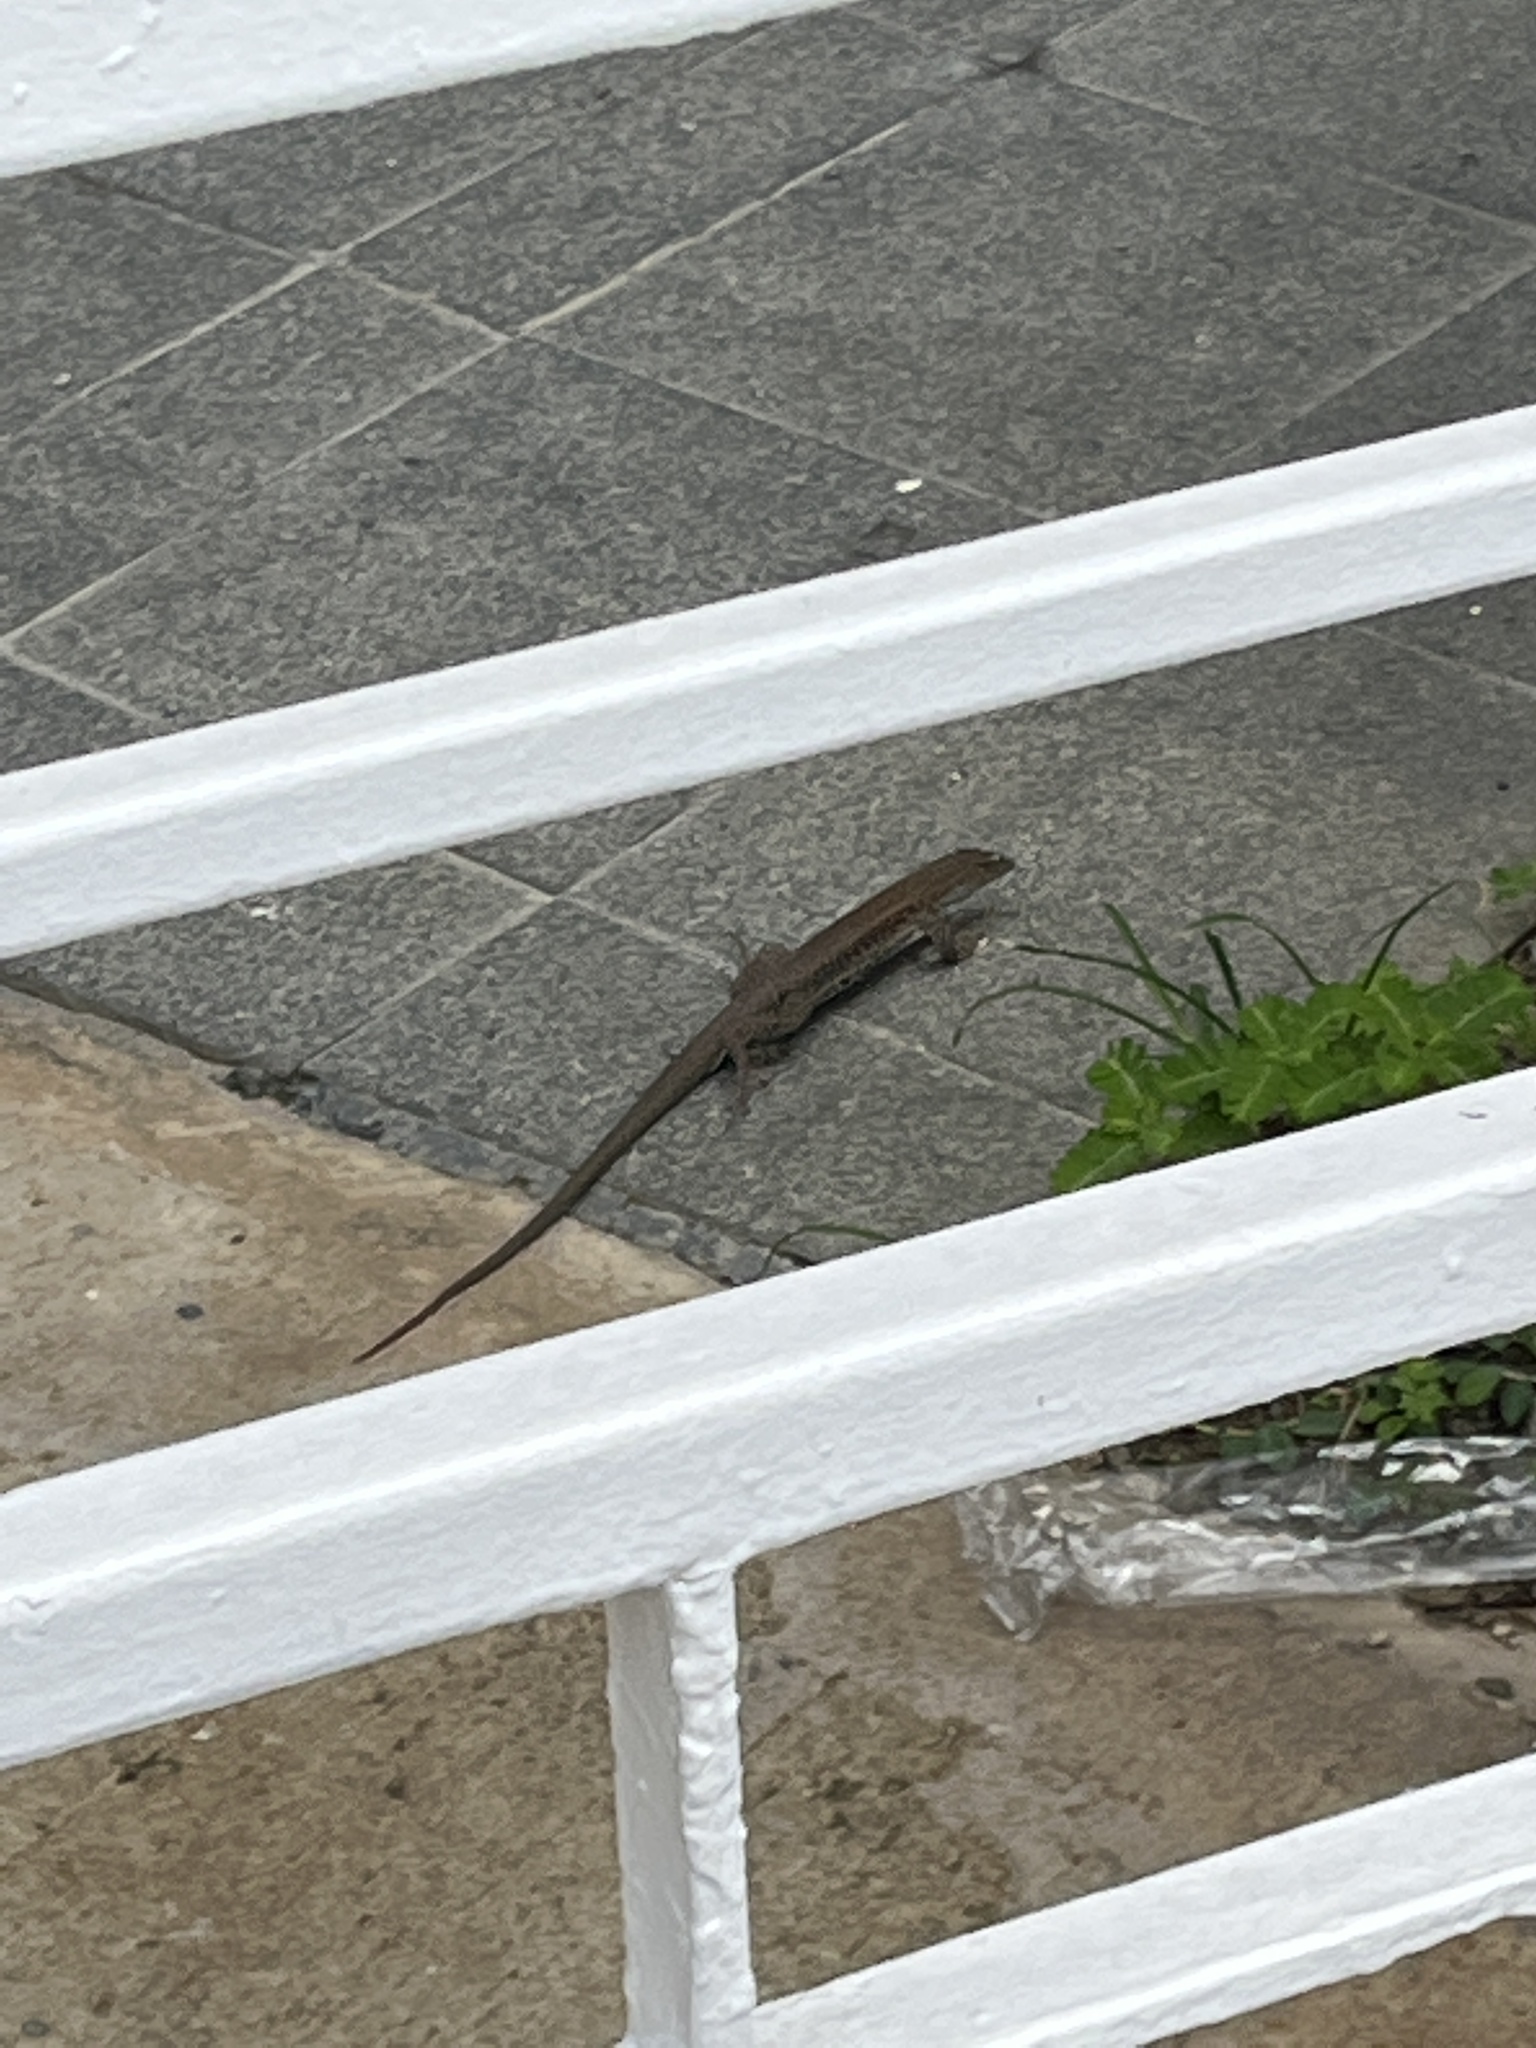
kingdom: Animalia
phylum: Chordata
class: Squamata
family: Teiidae
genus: Pholidoscelis
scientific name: Pholidoscelis exsul
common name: Common puerto rican ameiva
